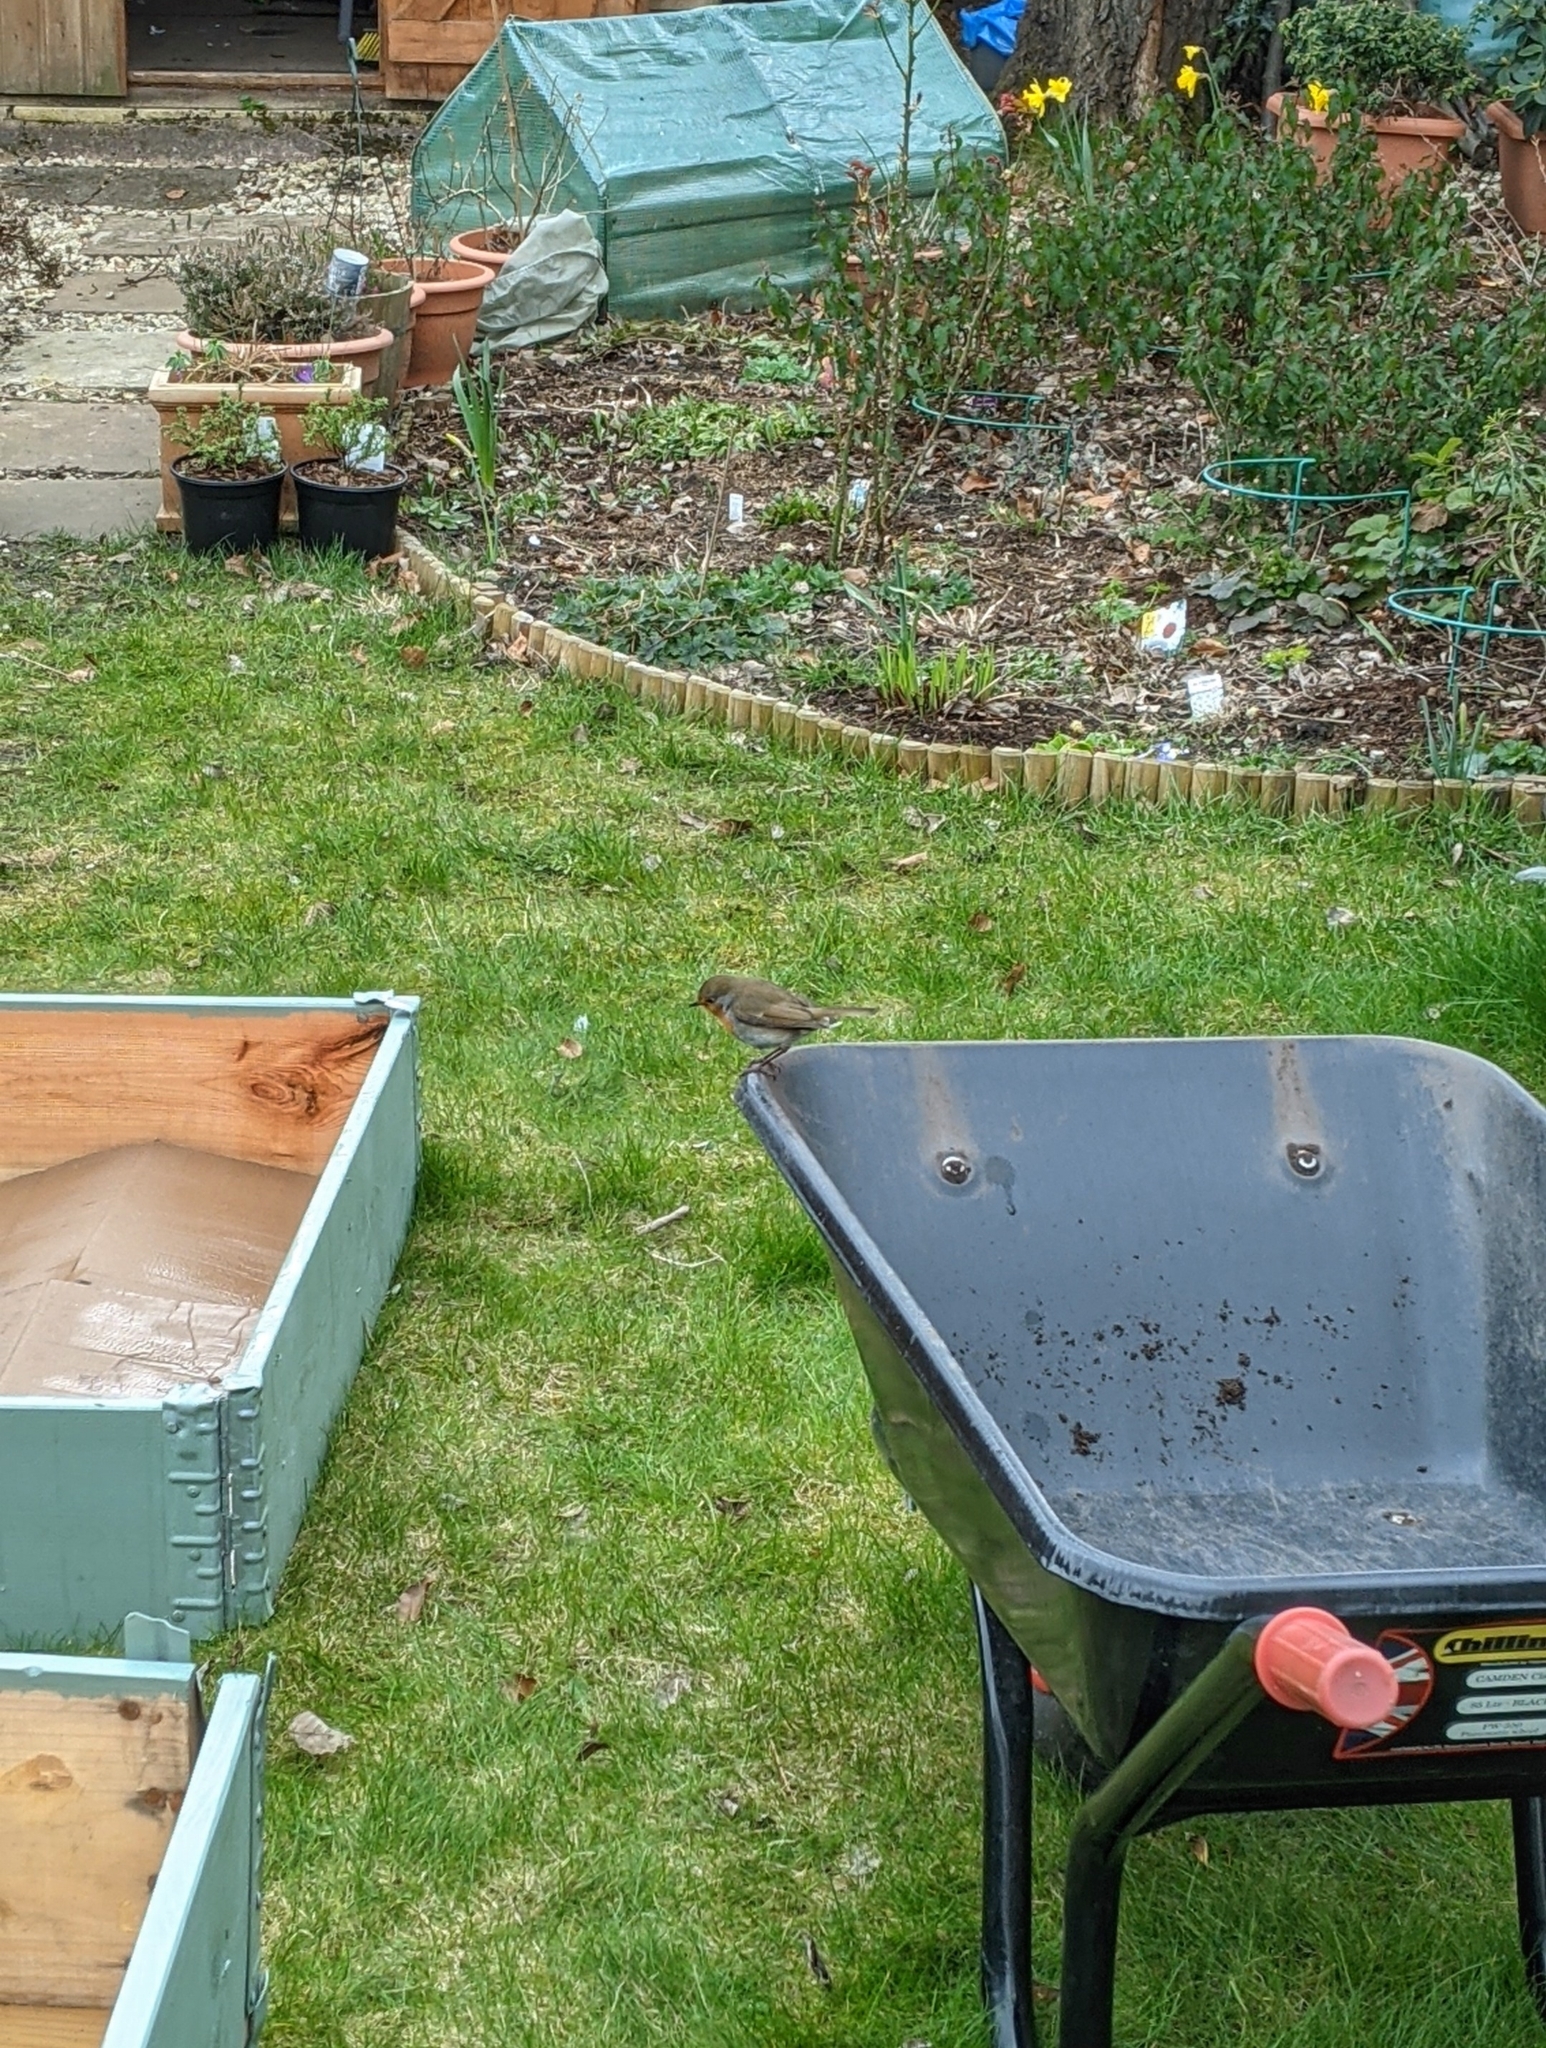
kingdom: Animalia
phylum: Chordata
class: Aves
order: Passeriformes
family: Muscicapidae
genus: Erithacus
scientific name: Erithacus rubecula
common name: European robin
